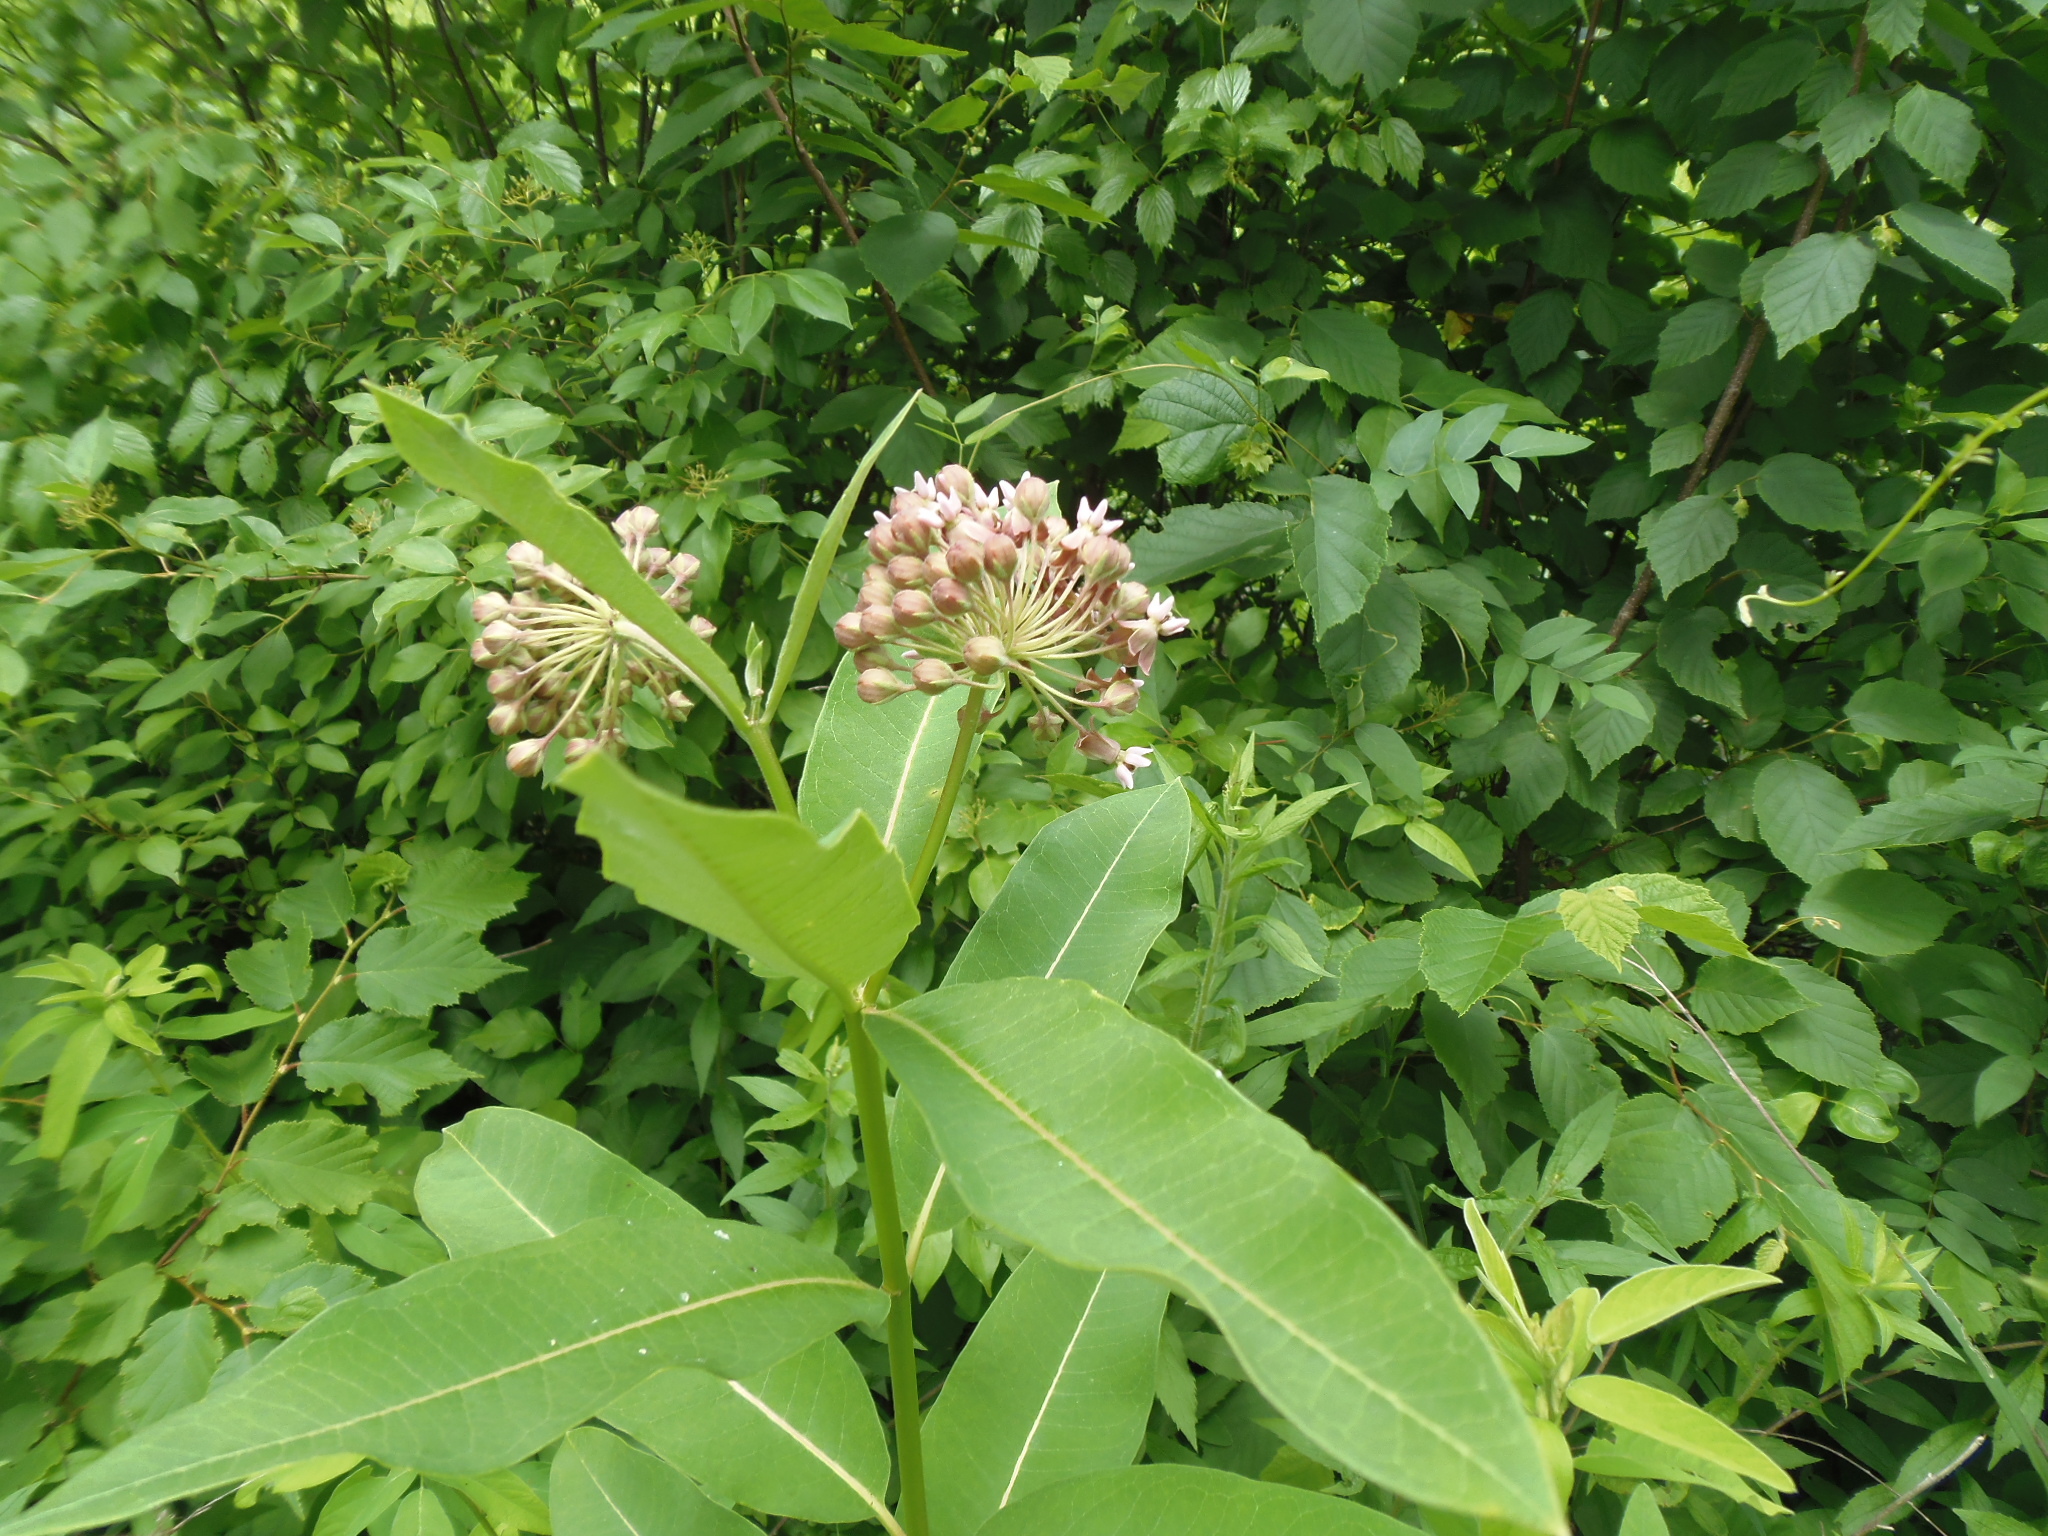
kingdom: Plantae
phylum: Tracheophyta
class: Magnoliopsida
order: Gentianales
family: Apocynaceae
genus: Asclepias
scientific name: Asclepias syriaca
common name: Common milkweed
